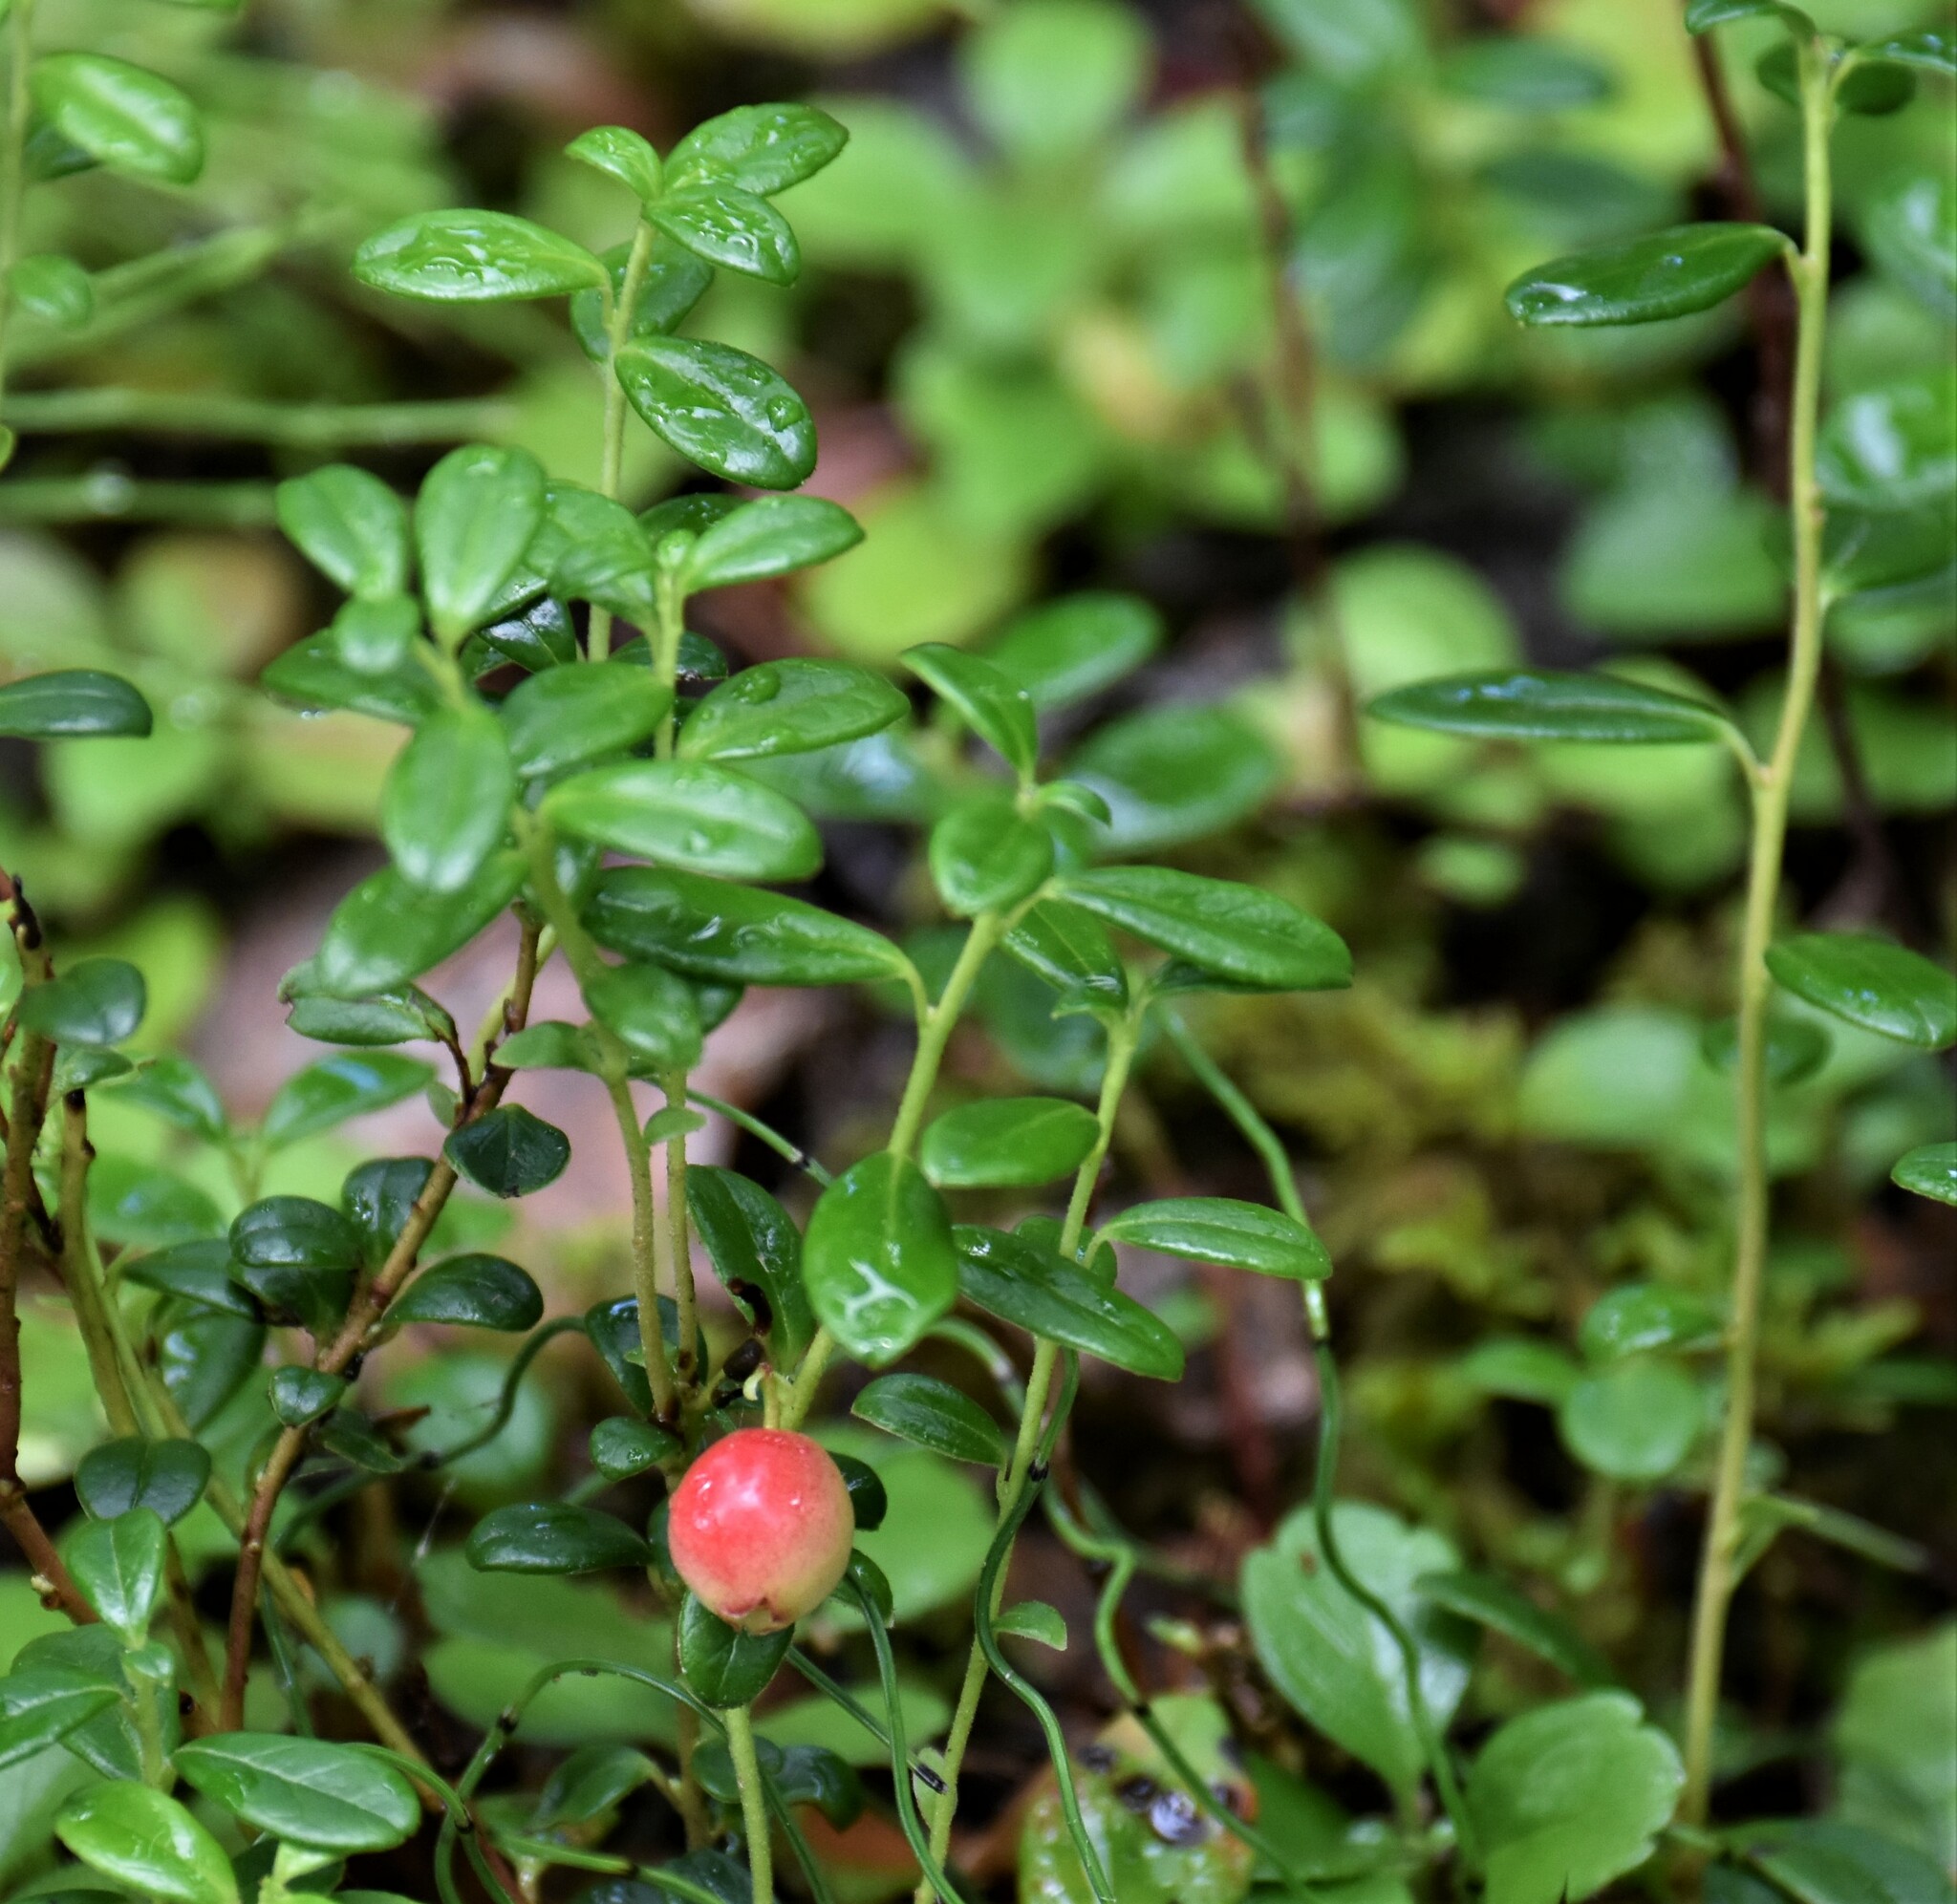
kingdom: Plantae
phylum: Tracheophyta
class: Magnoliopsida
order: Ericales
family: Ericaceae
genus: Vaccinium
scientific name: Vaccinium vitis-idaea
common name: Cowberry
